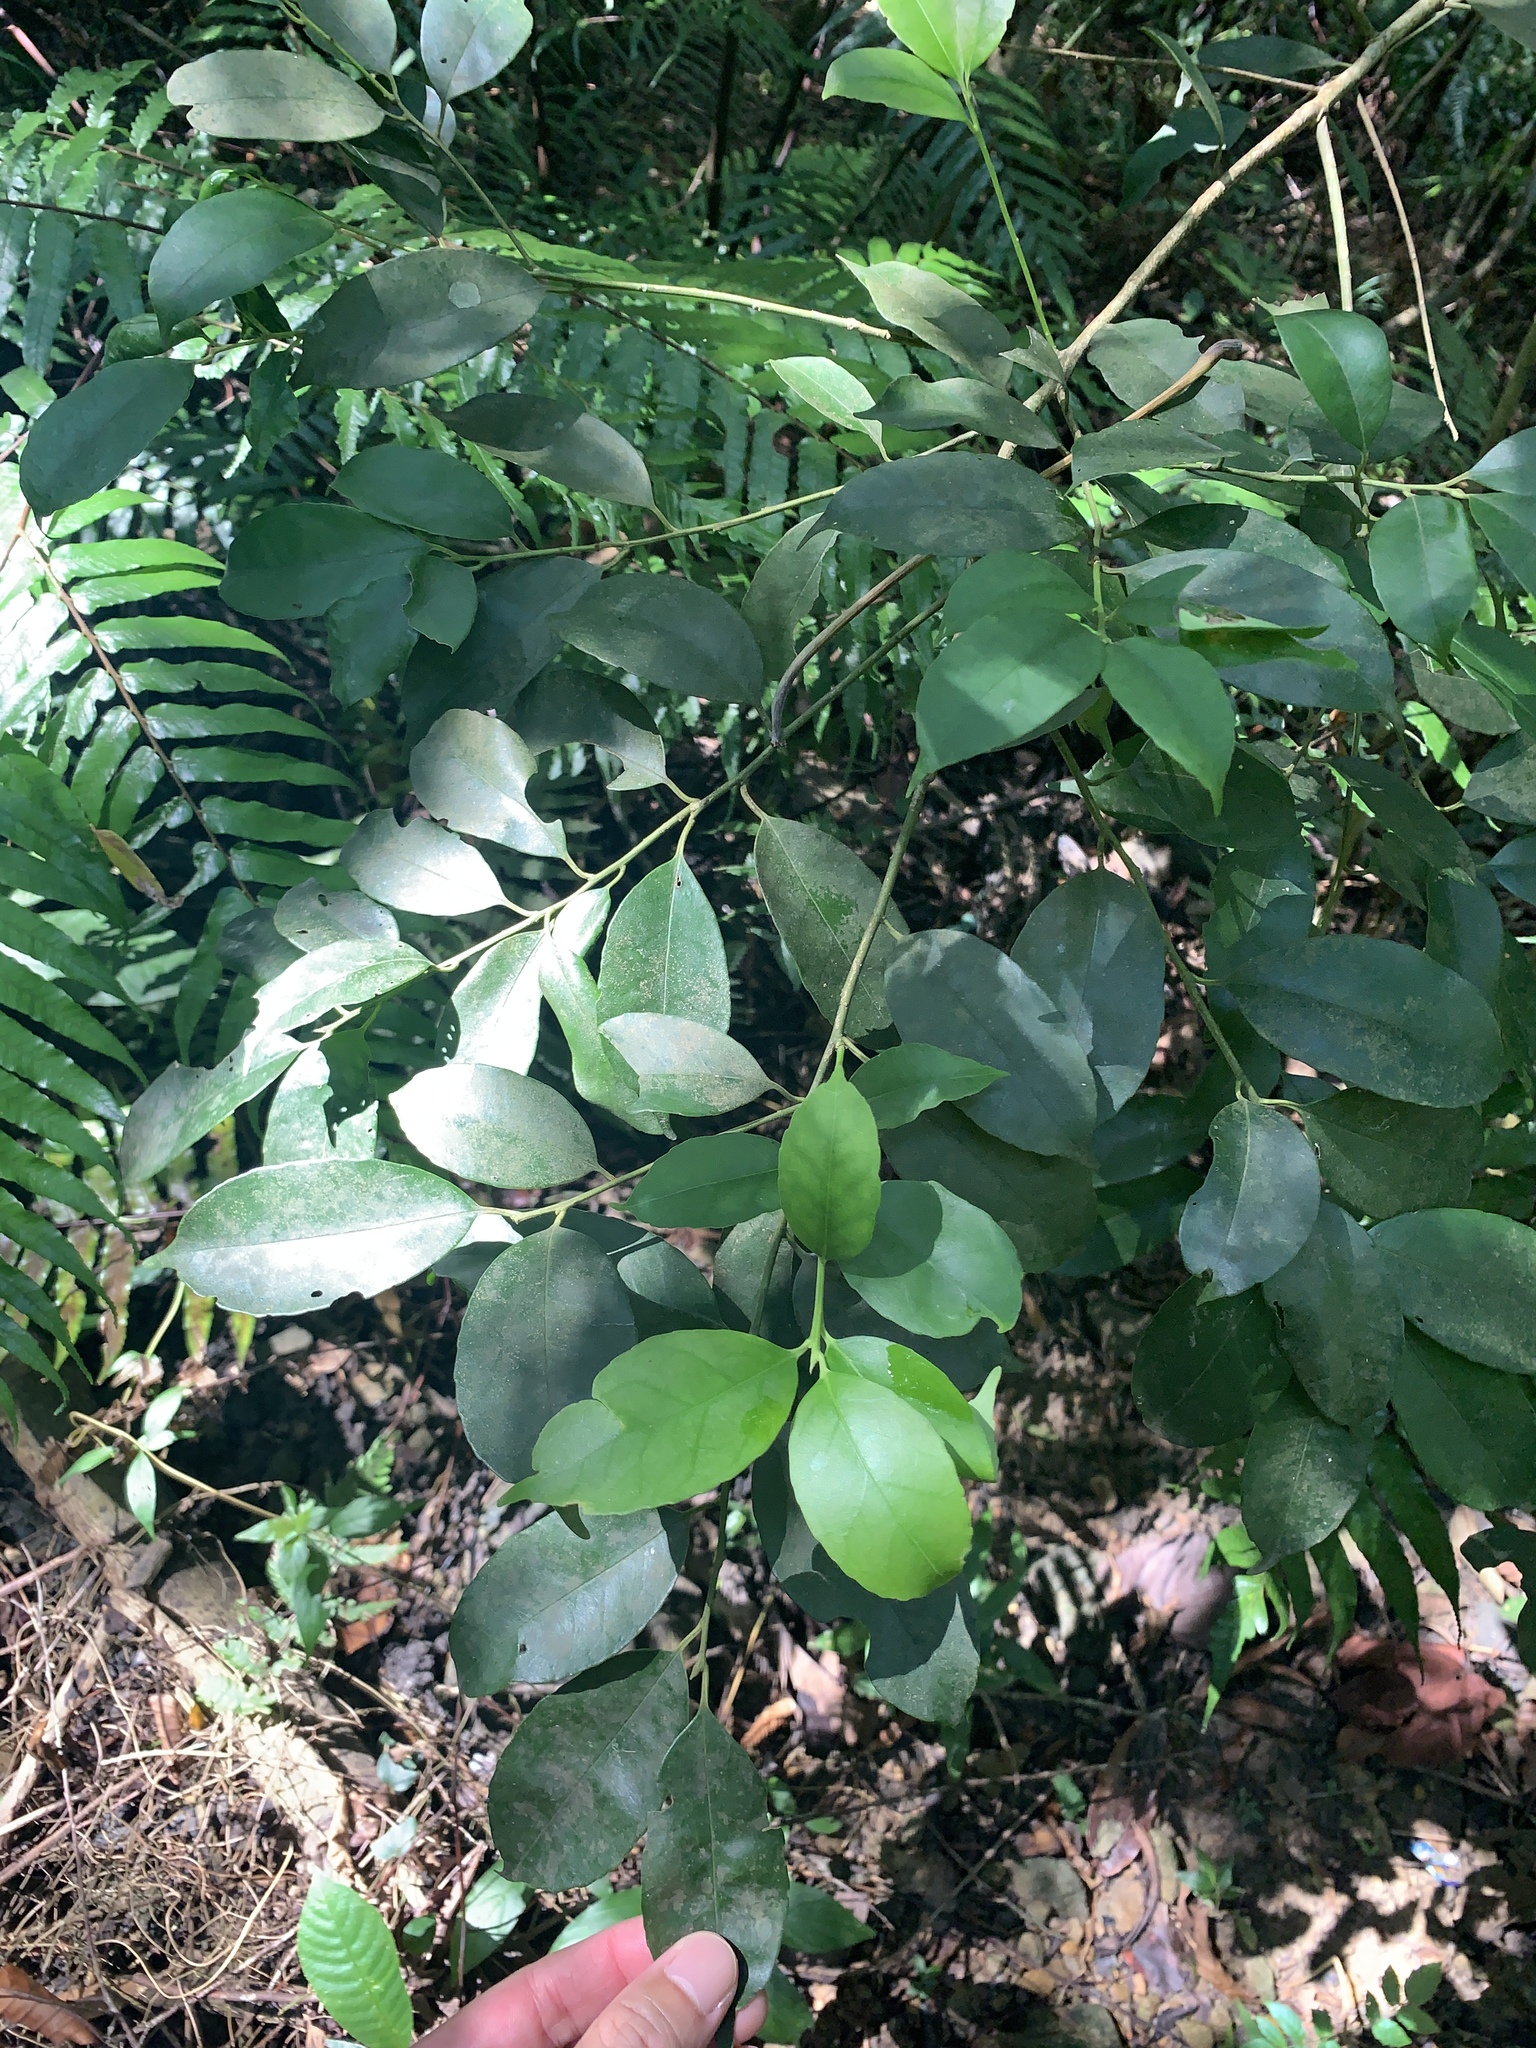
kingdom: Plantae
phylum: Tracheophyta
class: Magnoliopsida
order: Aquifoliales
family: Aquifoliaceae
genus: Ilex
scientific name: Ilex ficoidea
